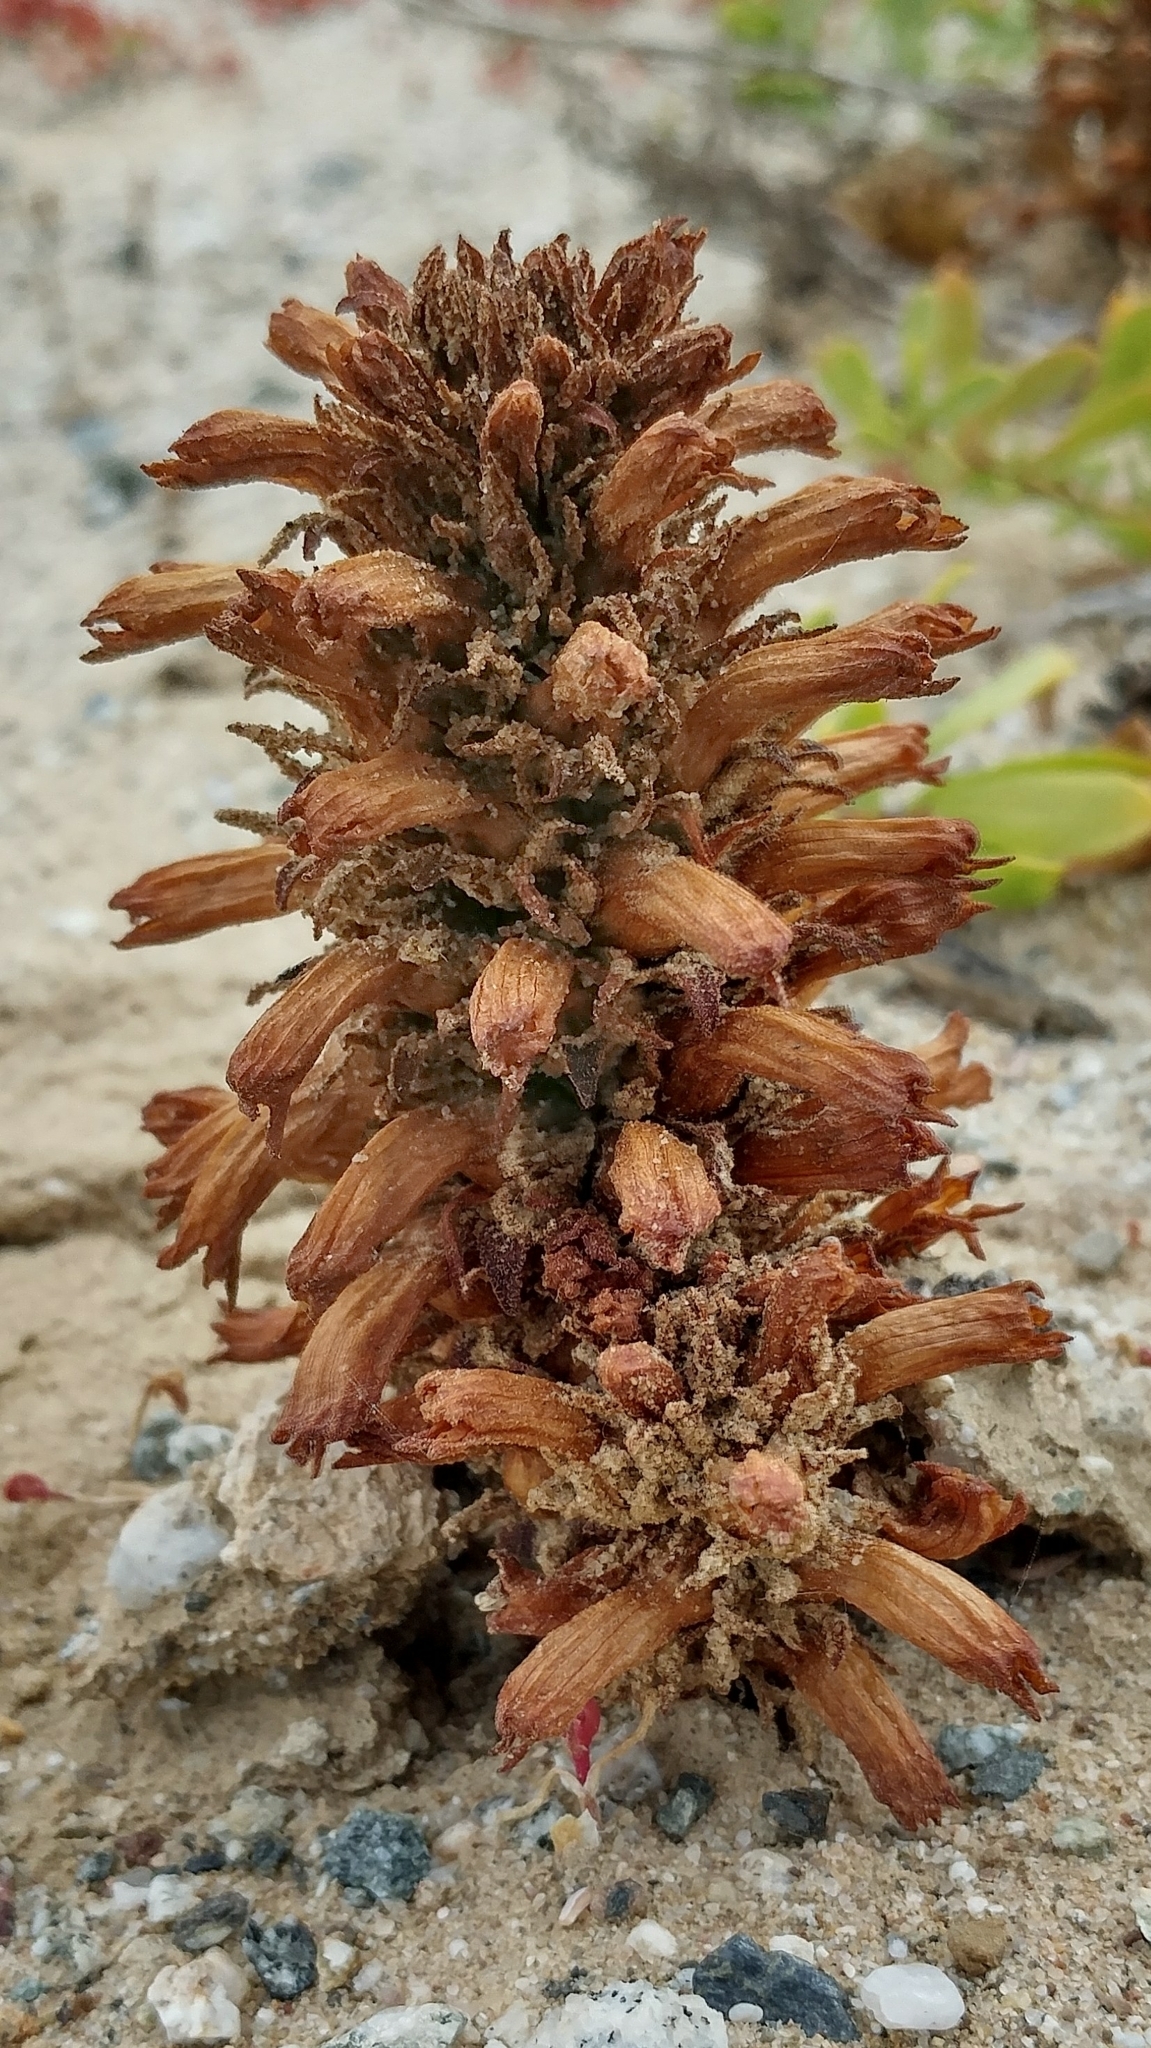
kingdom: Plantae
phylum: Tracheophyta
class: Magnoliopsida
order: Lamiales
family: Orobanchaceae
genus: Aphyllon
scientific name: Aphyllon parishii
